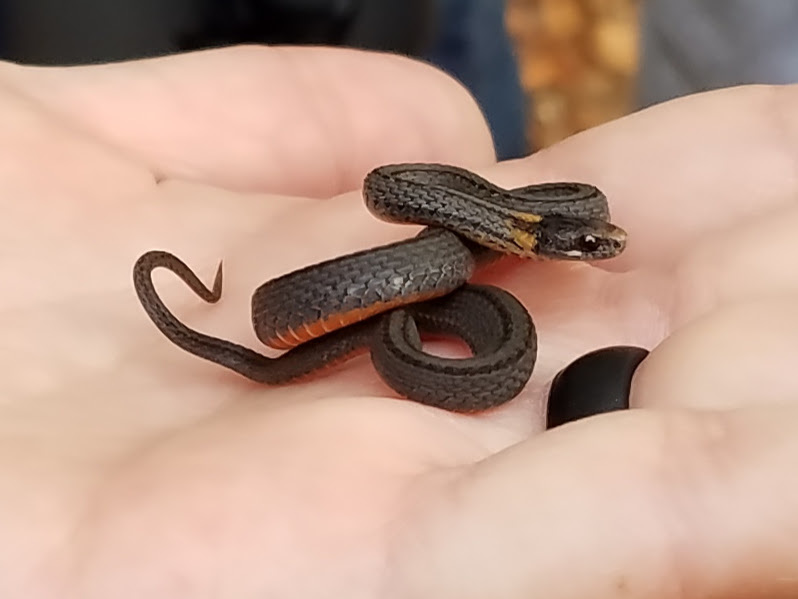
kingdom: Animalia
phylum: Chordata
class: Squamata
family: Colubridae
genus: Storeria
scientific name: Storeria occipitomaculata
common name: Redbelly snake
